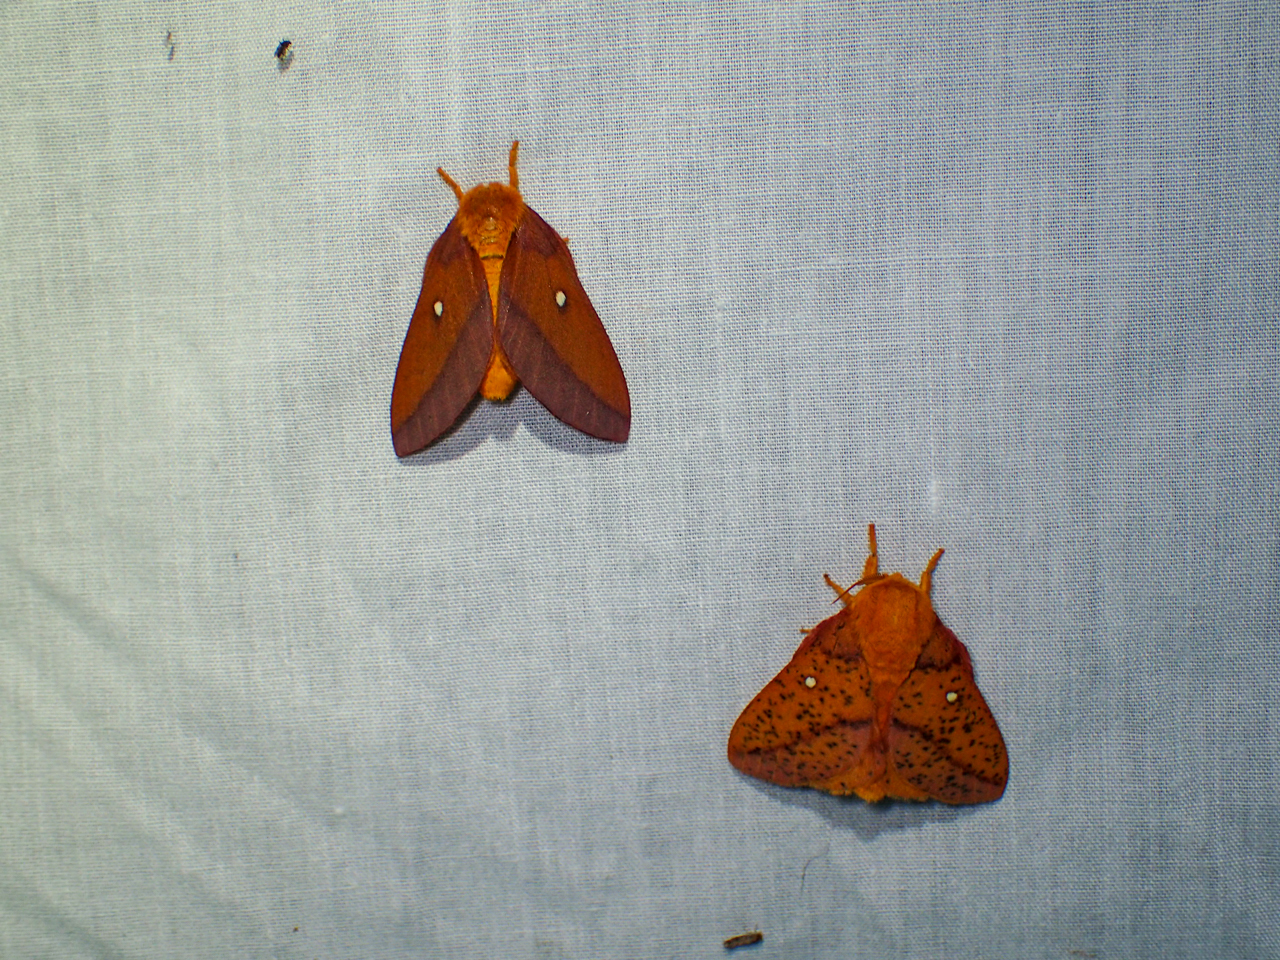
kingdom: Animalia
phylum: Arthropoda
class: Insecta
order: Lepidoptera
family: Saturniidae
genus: Anisota
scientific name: Anisota virginiensis
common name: Pink striped oakworm moth
